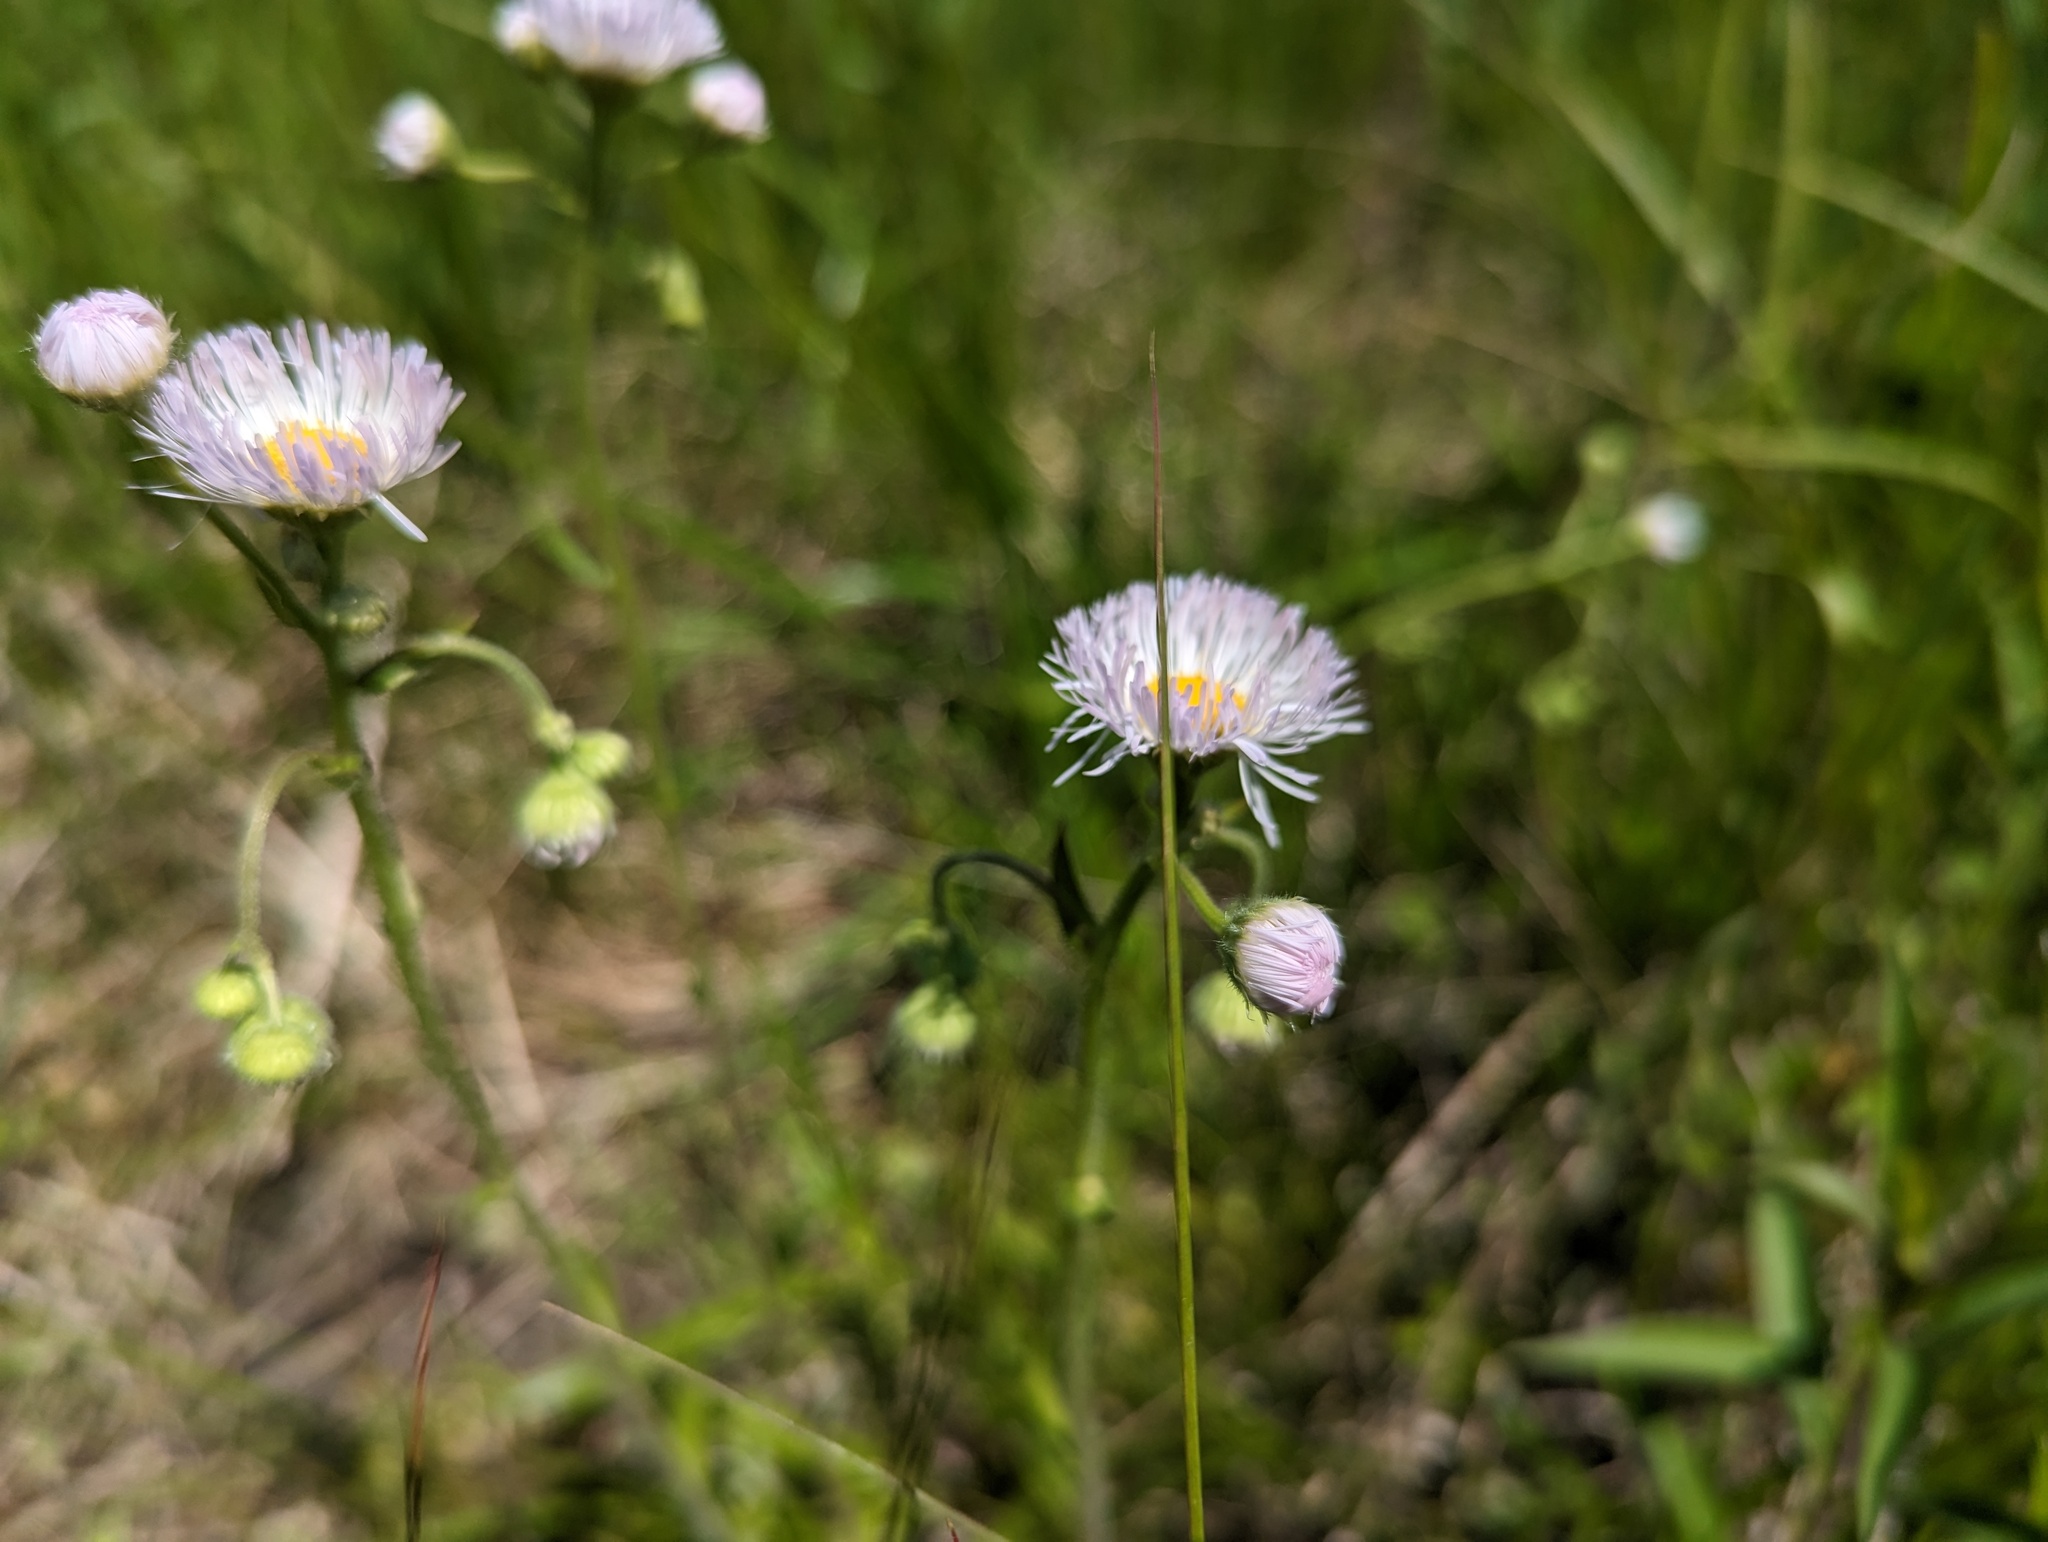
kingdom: Plantae
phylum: Tracheophyta
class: Magnoliopsida
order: Asterales
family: Asteraceae
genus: Erigeron
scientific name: Erigeron philadelphicus
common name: Robin's-plantain
